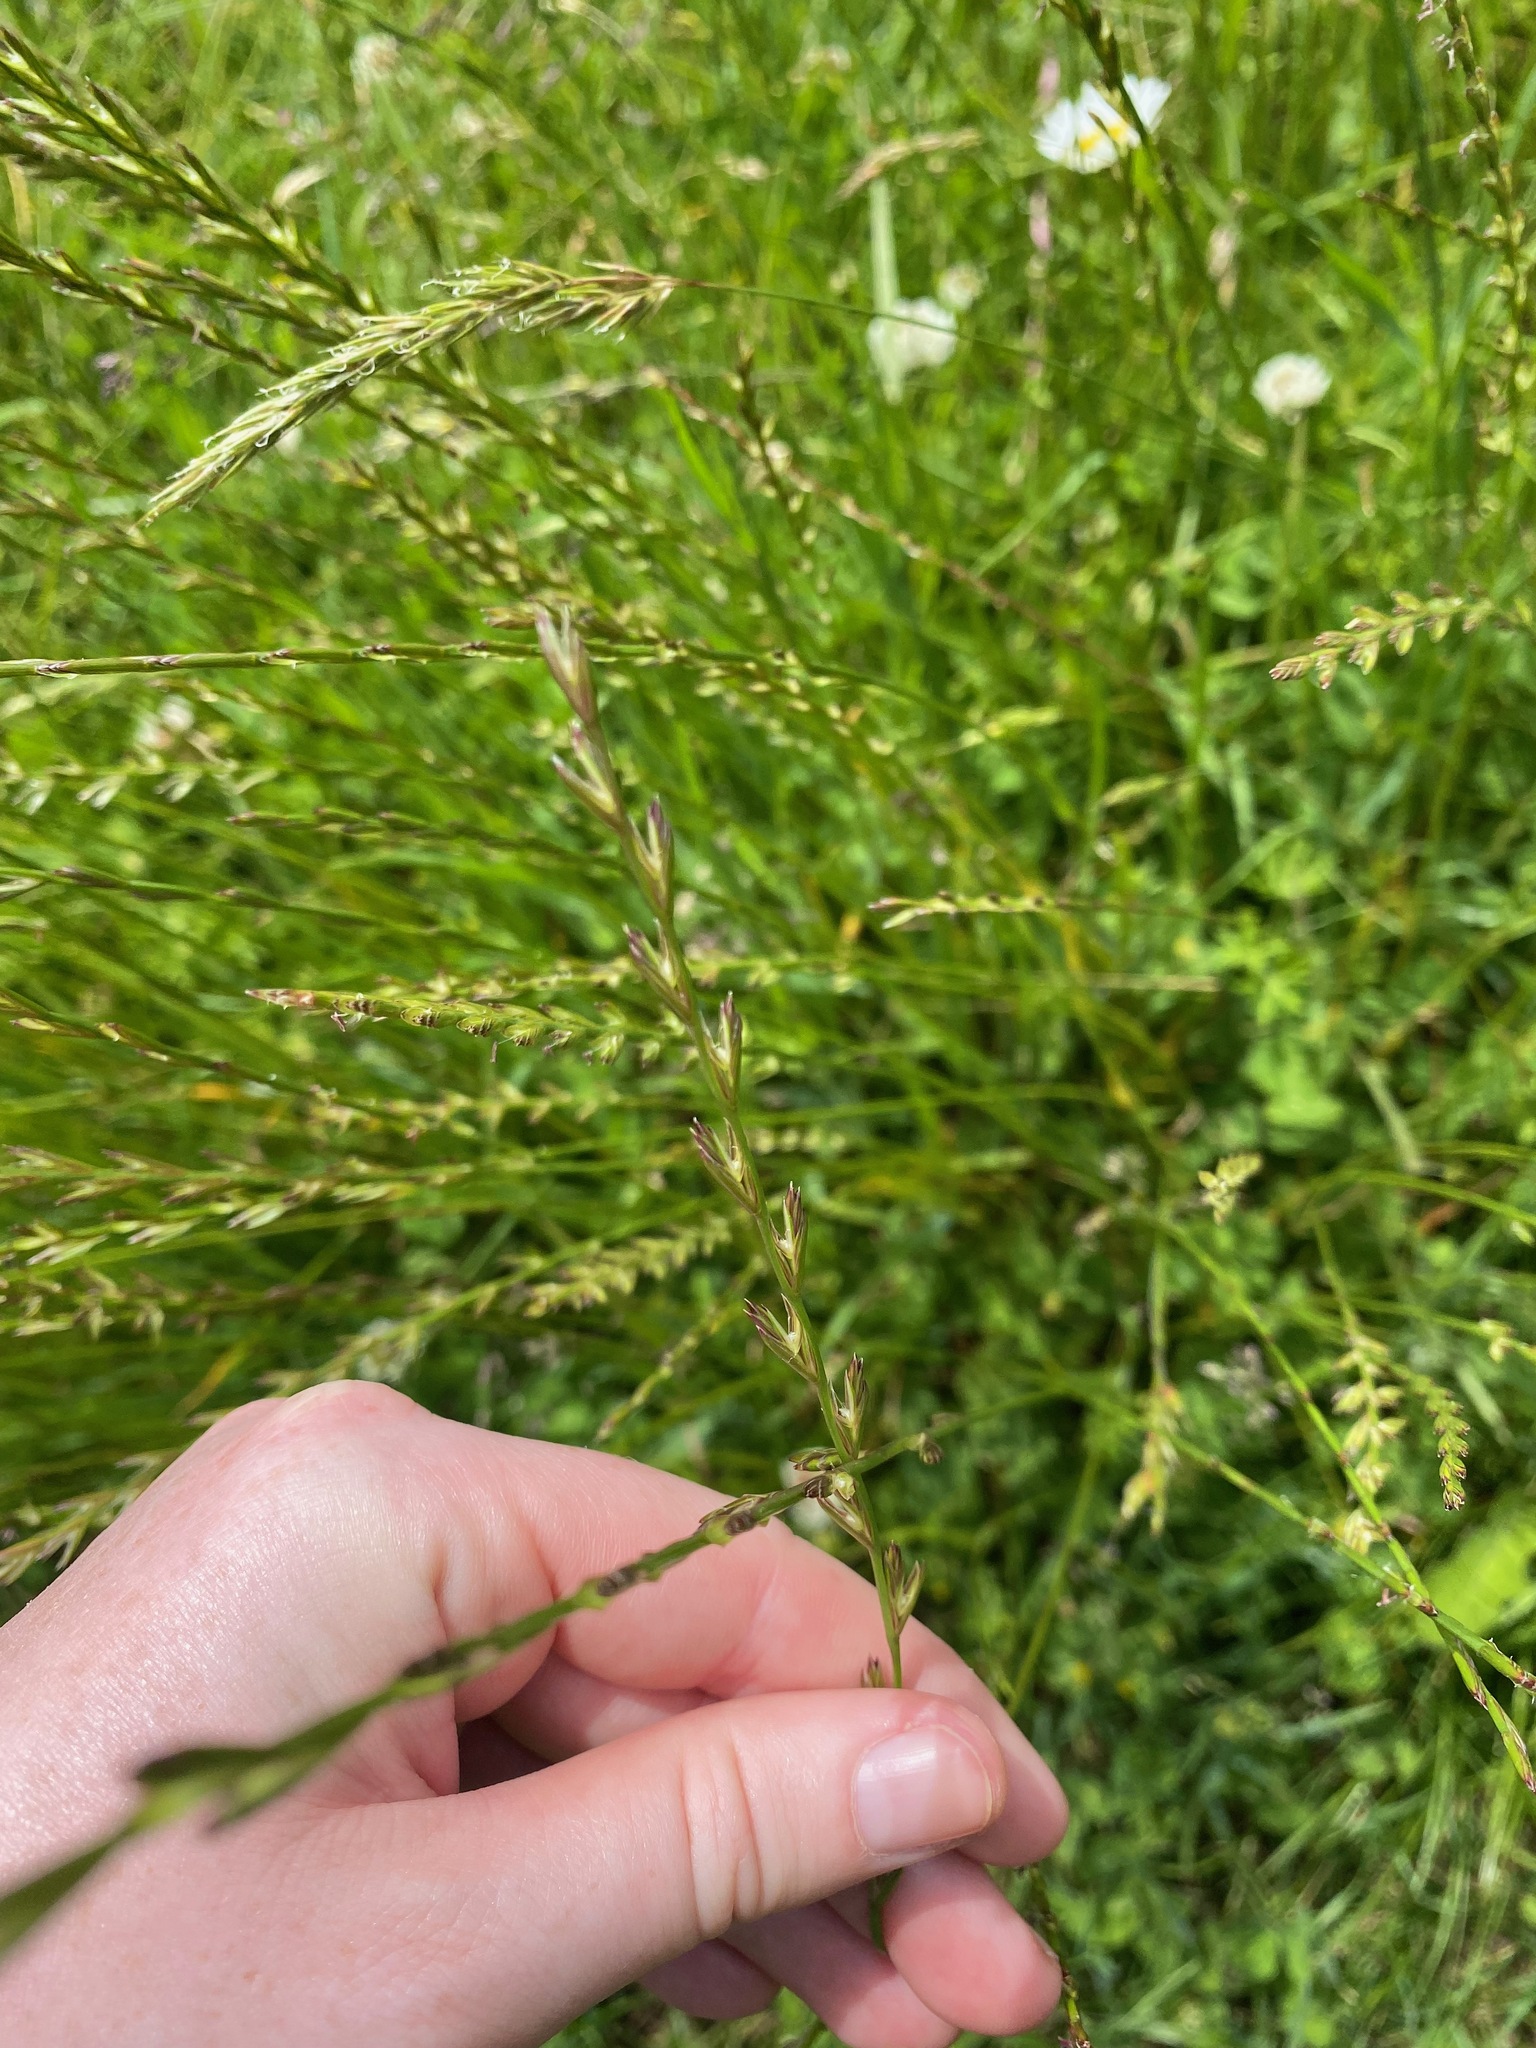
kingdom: Plantae
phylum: Tracheophyta
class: Liliopsida
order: Poales
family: Poaceae
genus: Lolium
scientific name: Lolium perenne
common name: Perennial ryegrass
